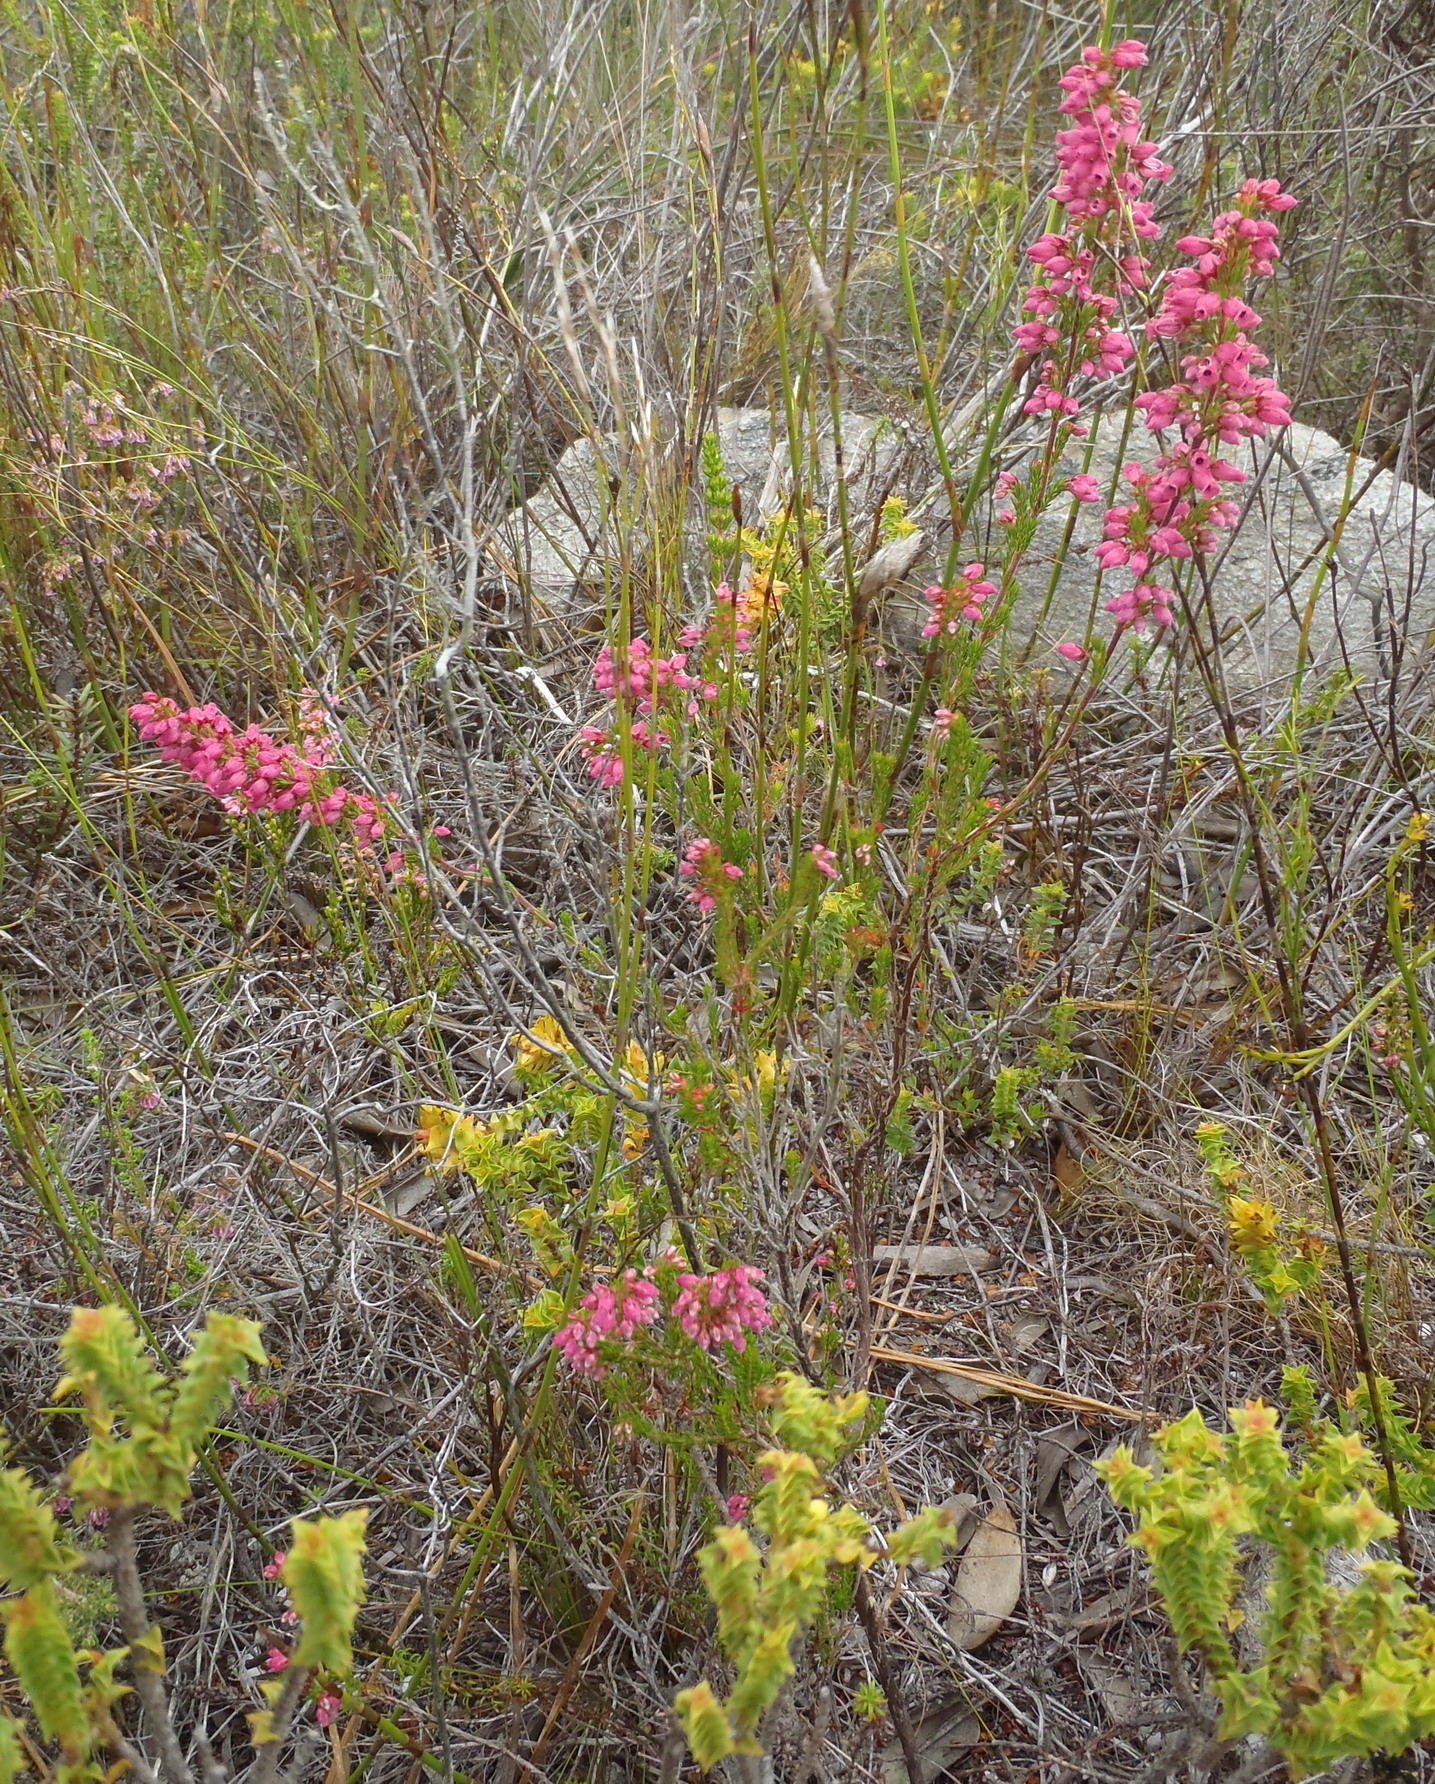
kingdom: Plantae
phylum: Tracheophyta
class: Magnoliopsida
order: Ericales
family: Ericaceae
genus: Erica
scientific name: Erica tenella
